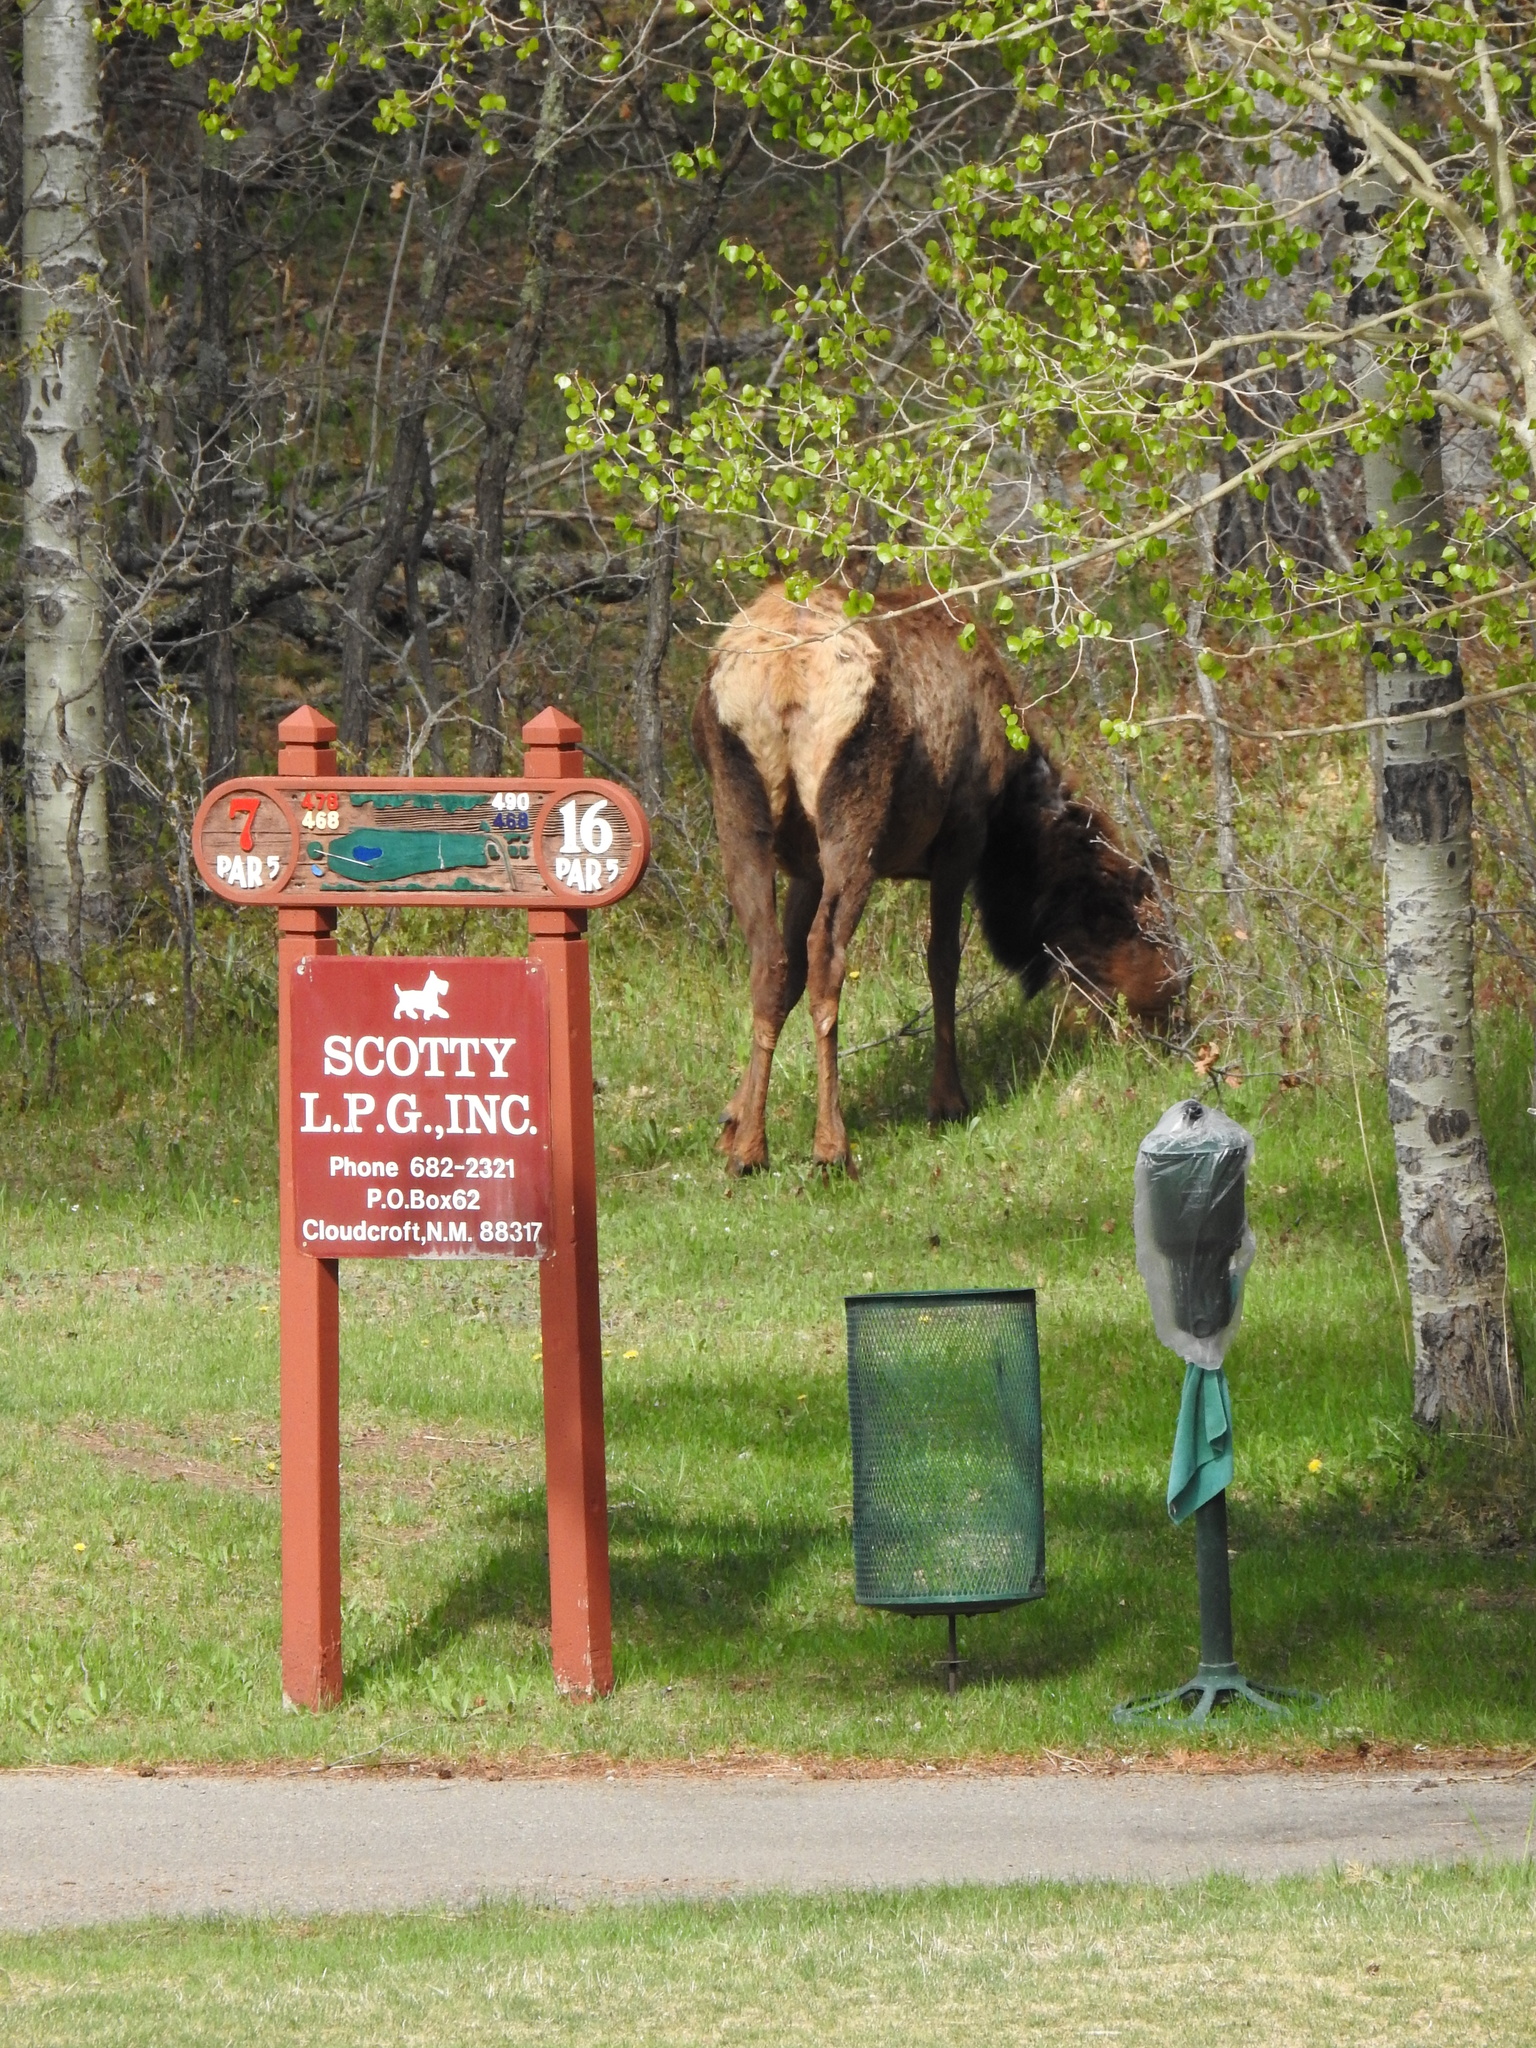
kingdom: Animalia
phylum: Chordata
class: Mammalia
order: Artiodactyla
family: Cervidae
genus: Cervus
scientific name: Cervus elaphus
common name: Red deer
